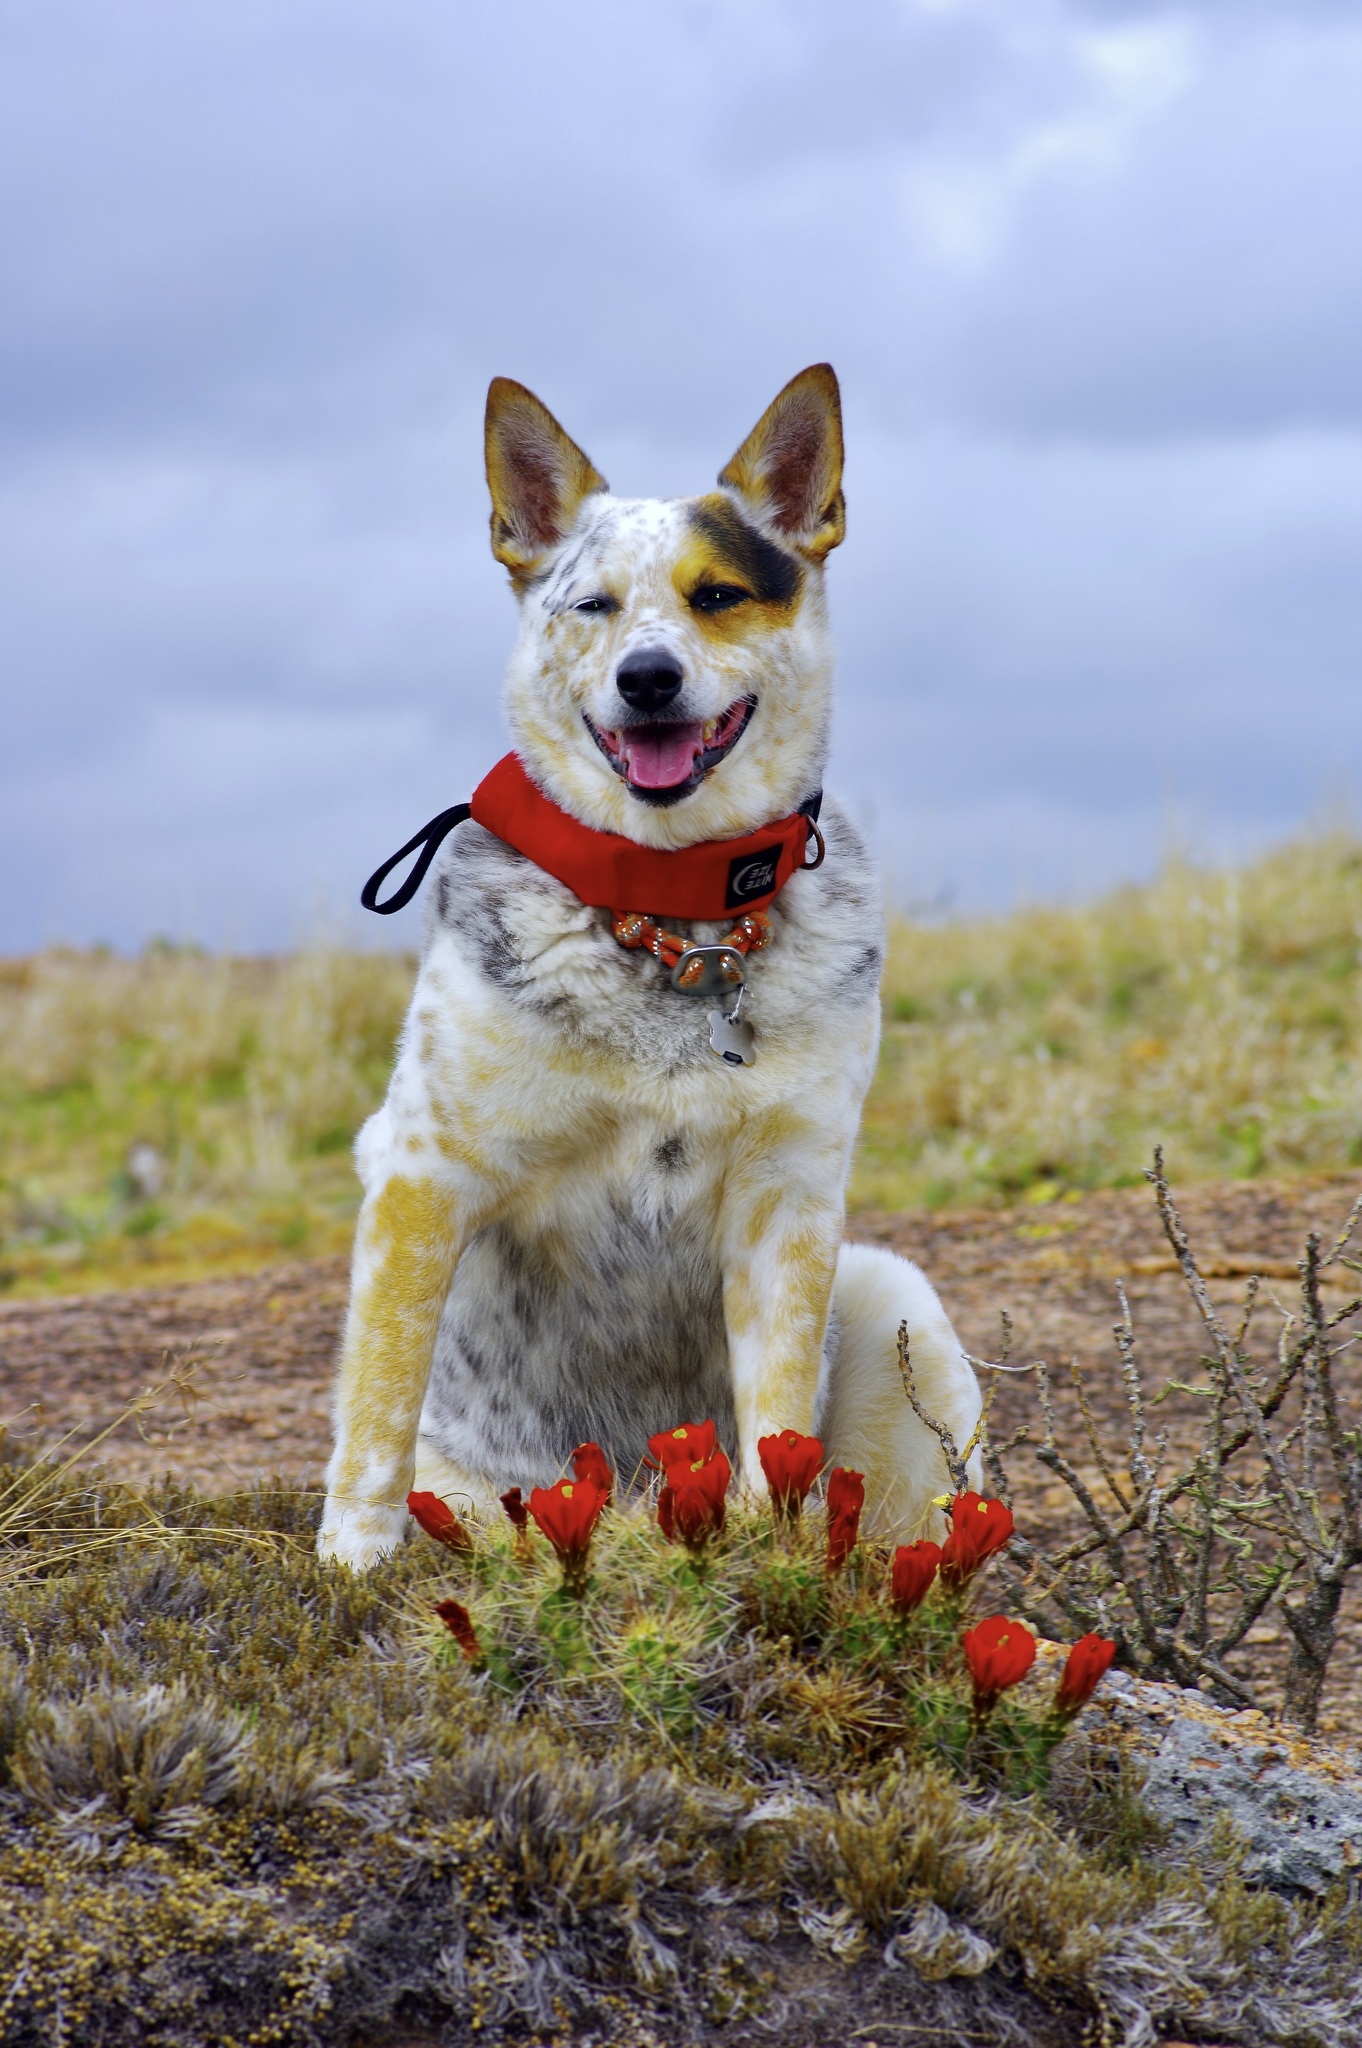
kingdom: Plantae
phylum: Tracheophyta
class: Magnoliopsida
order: Caryophyllales
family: Cactaceae
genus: Echinocereus
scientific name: Echinocereus coccineus
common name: Scarlet hedgehog cactus
